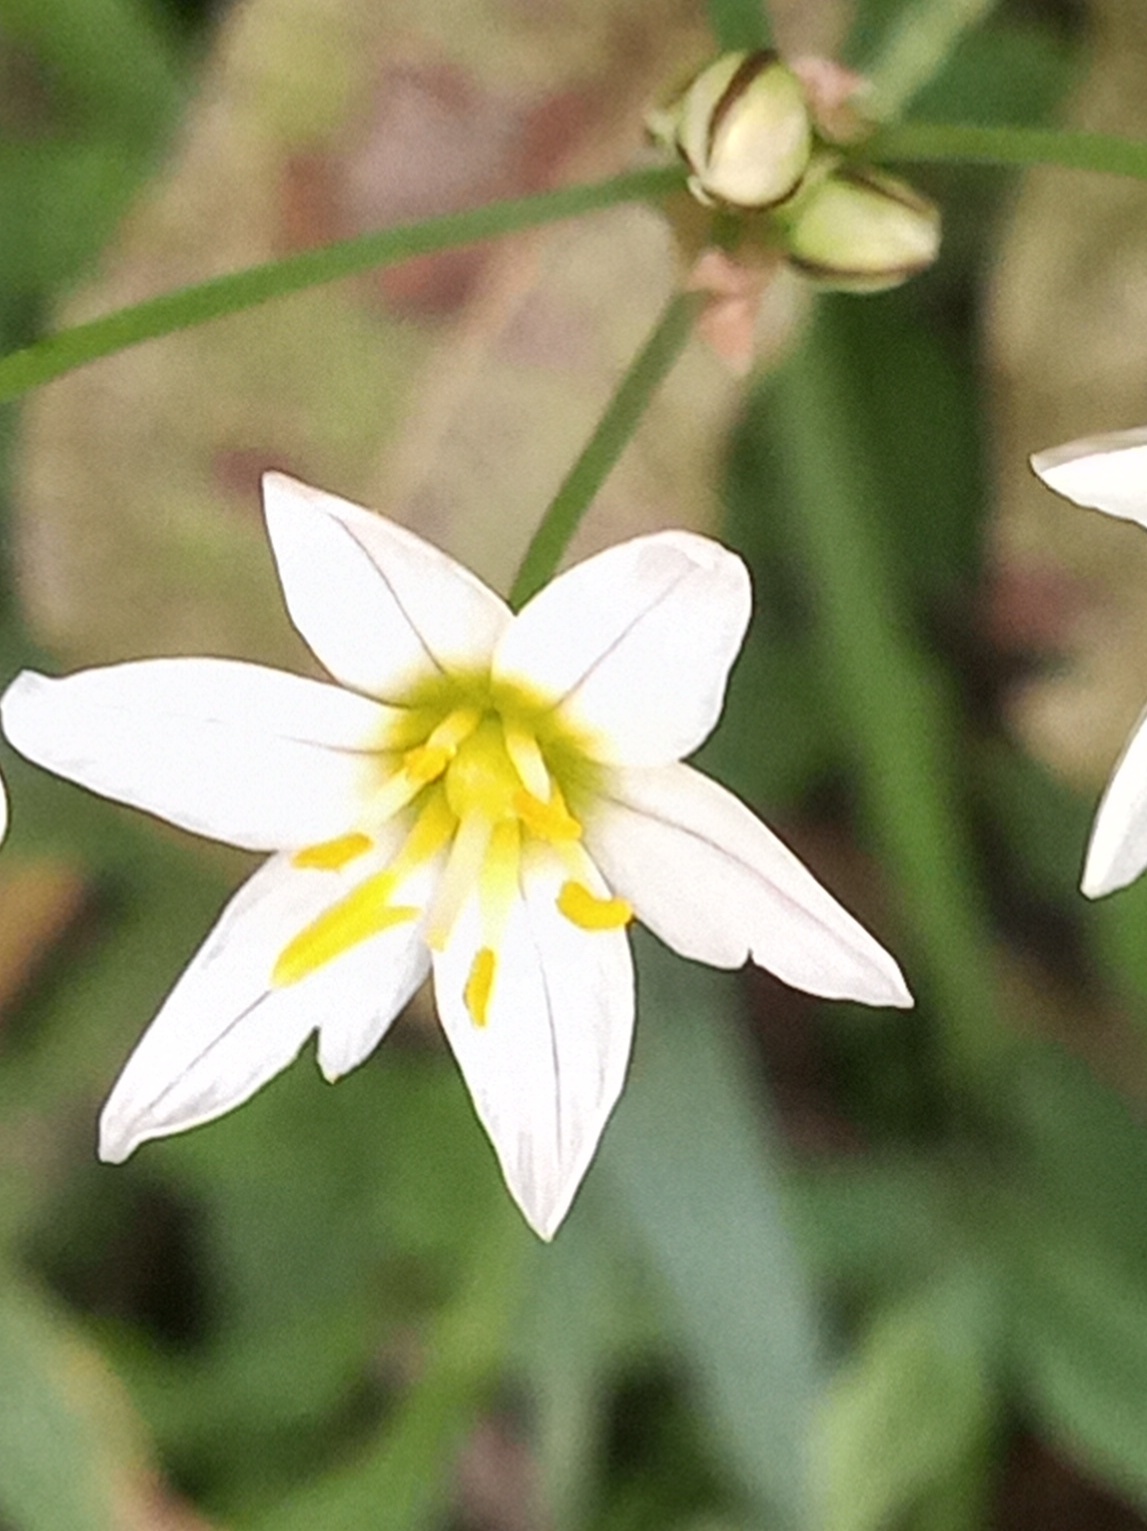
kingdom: Plantae
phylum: Tracheophyta
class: Liliopsida
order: Asparagales
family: Amaryllidaceae
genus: Nothoscordum
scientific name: Nothoscordum bivalve
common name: Crow-poison
